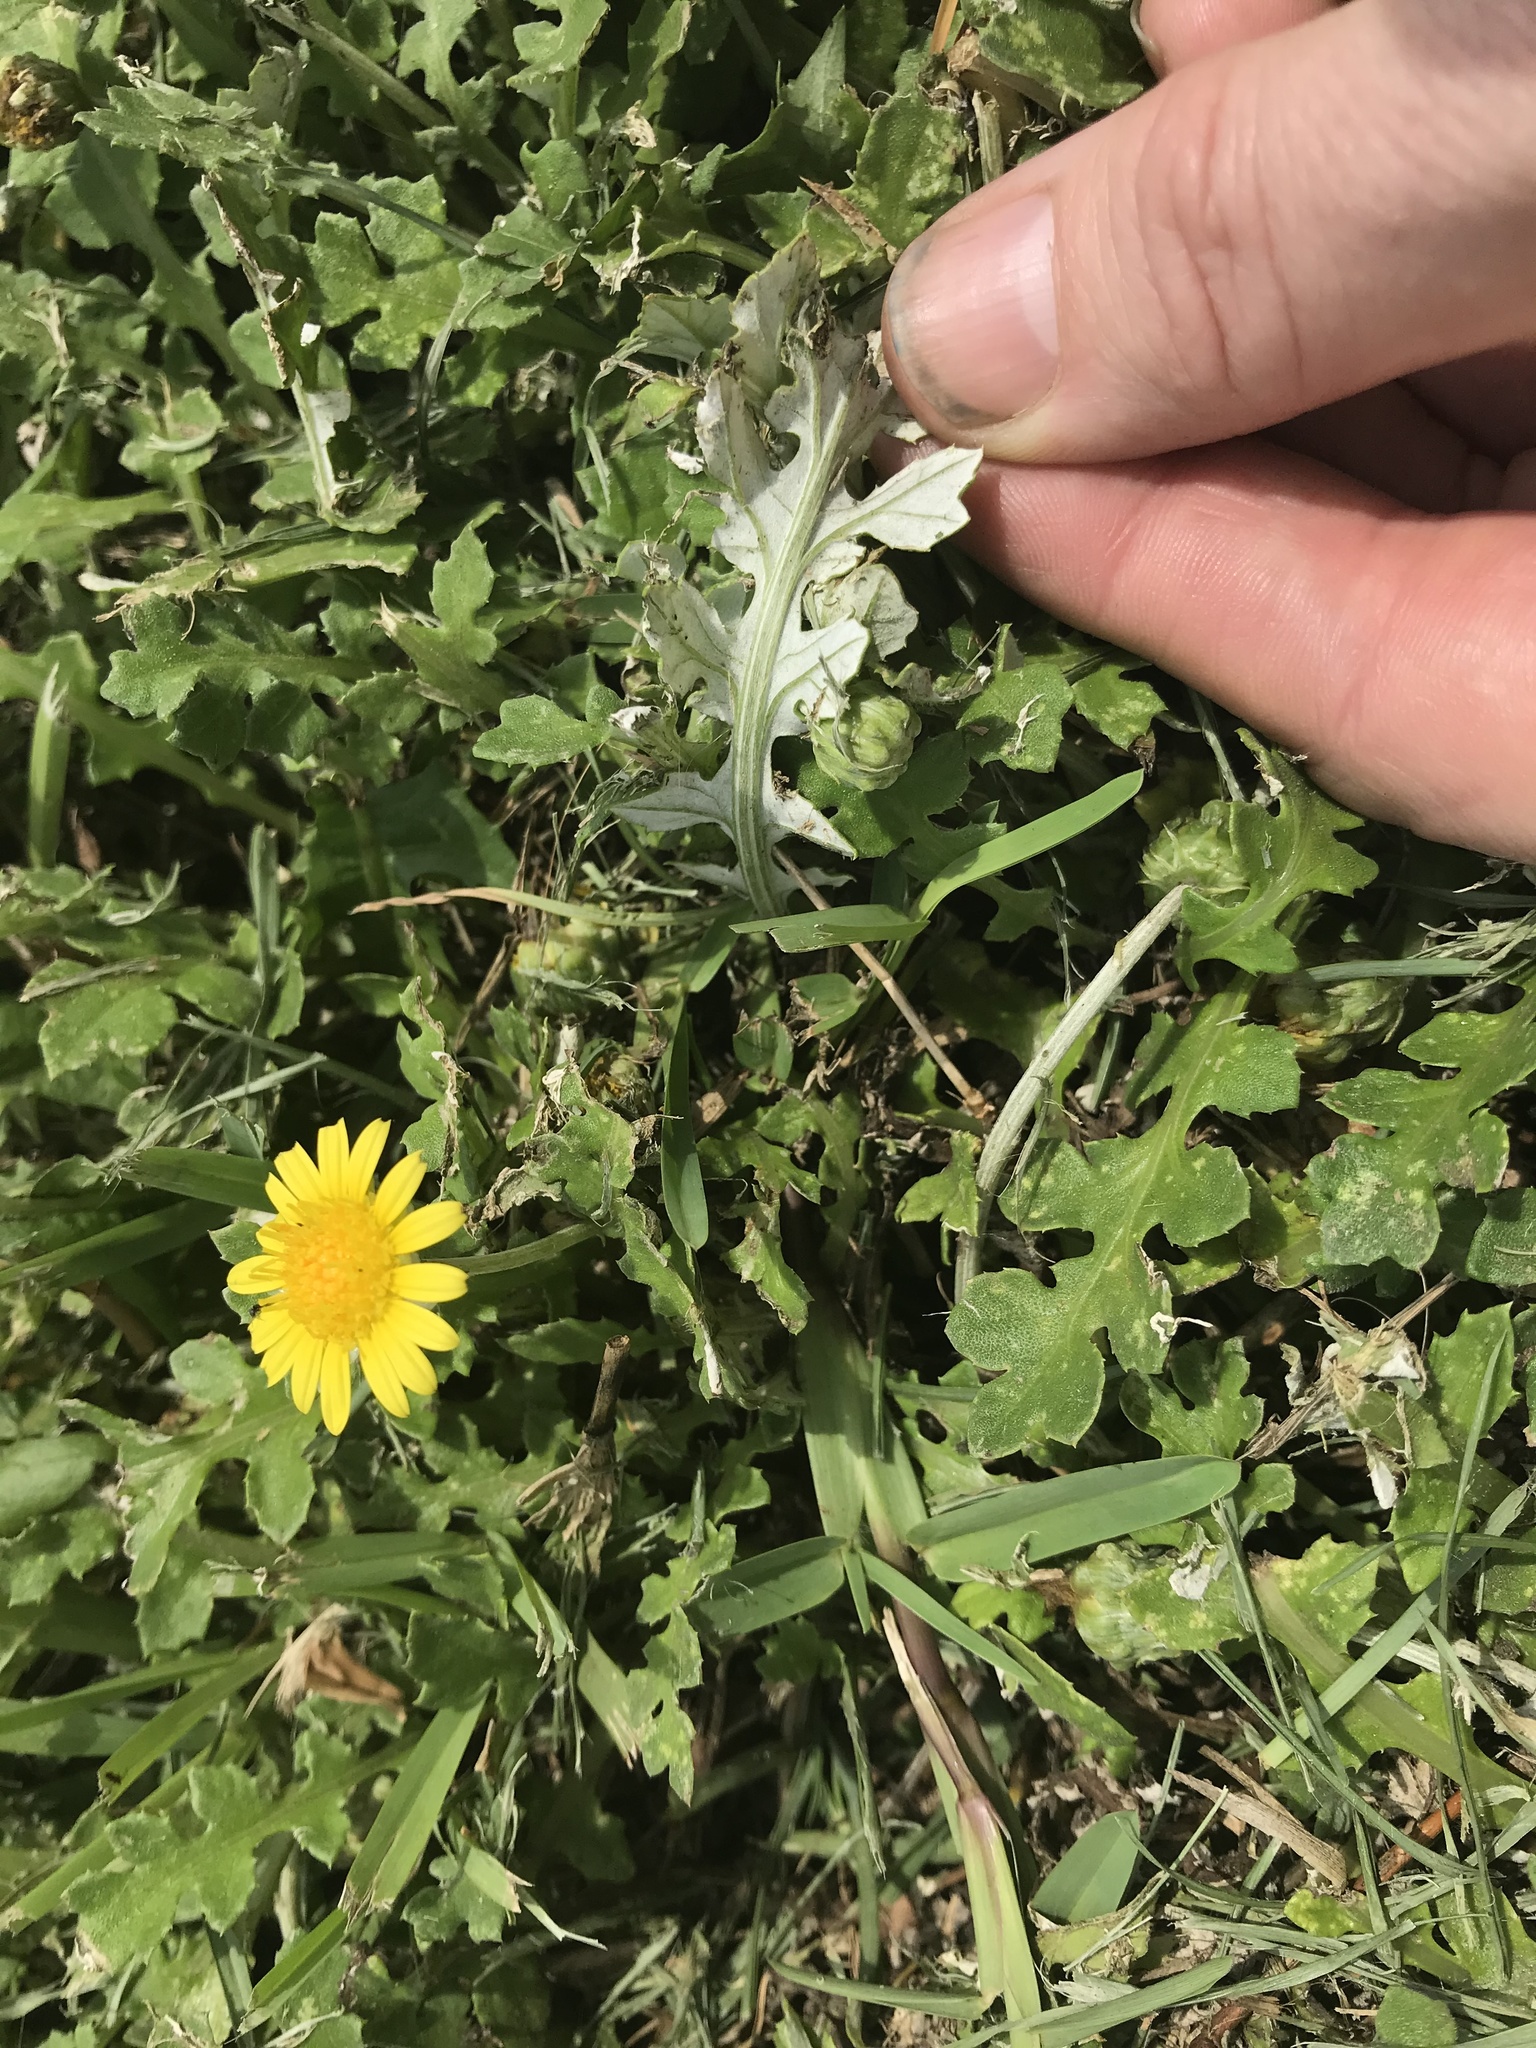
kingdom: Plantae
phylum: Tracheophyta
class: Magnoliopsida
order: Asterales
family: Asteraceae
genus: Arctotheca
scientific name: Arctotheca prostrata
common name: Capeweed
